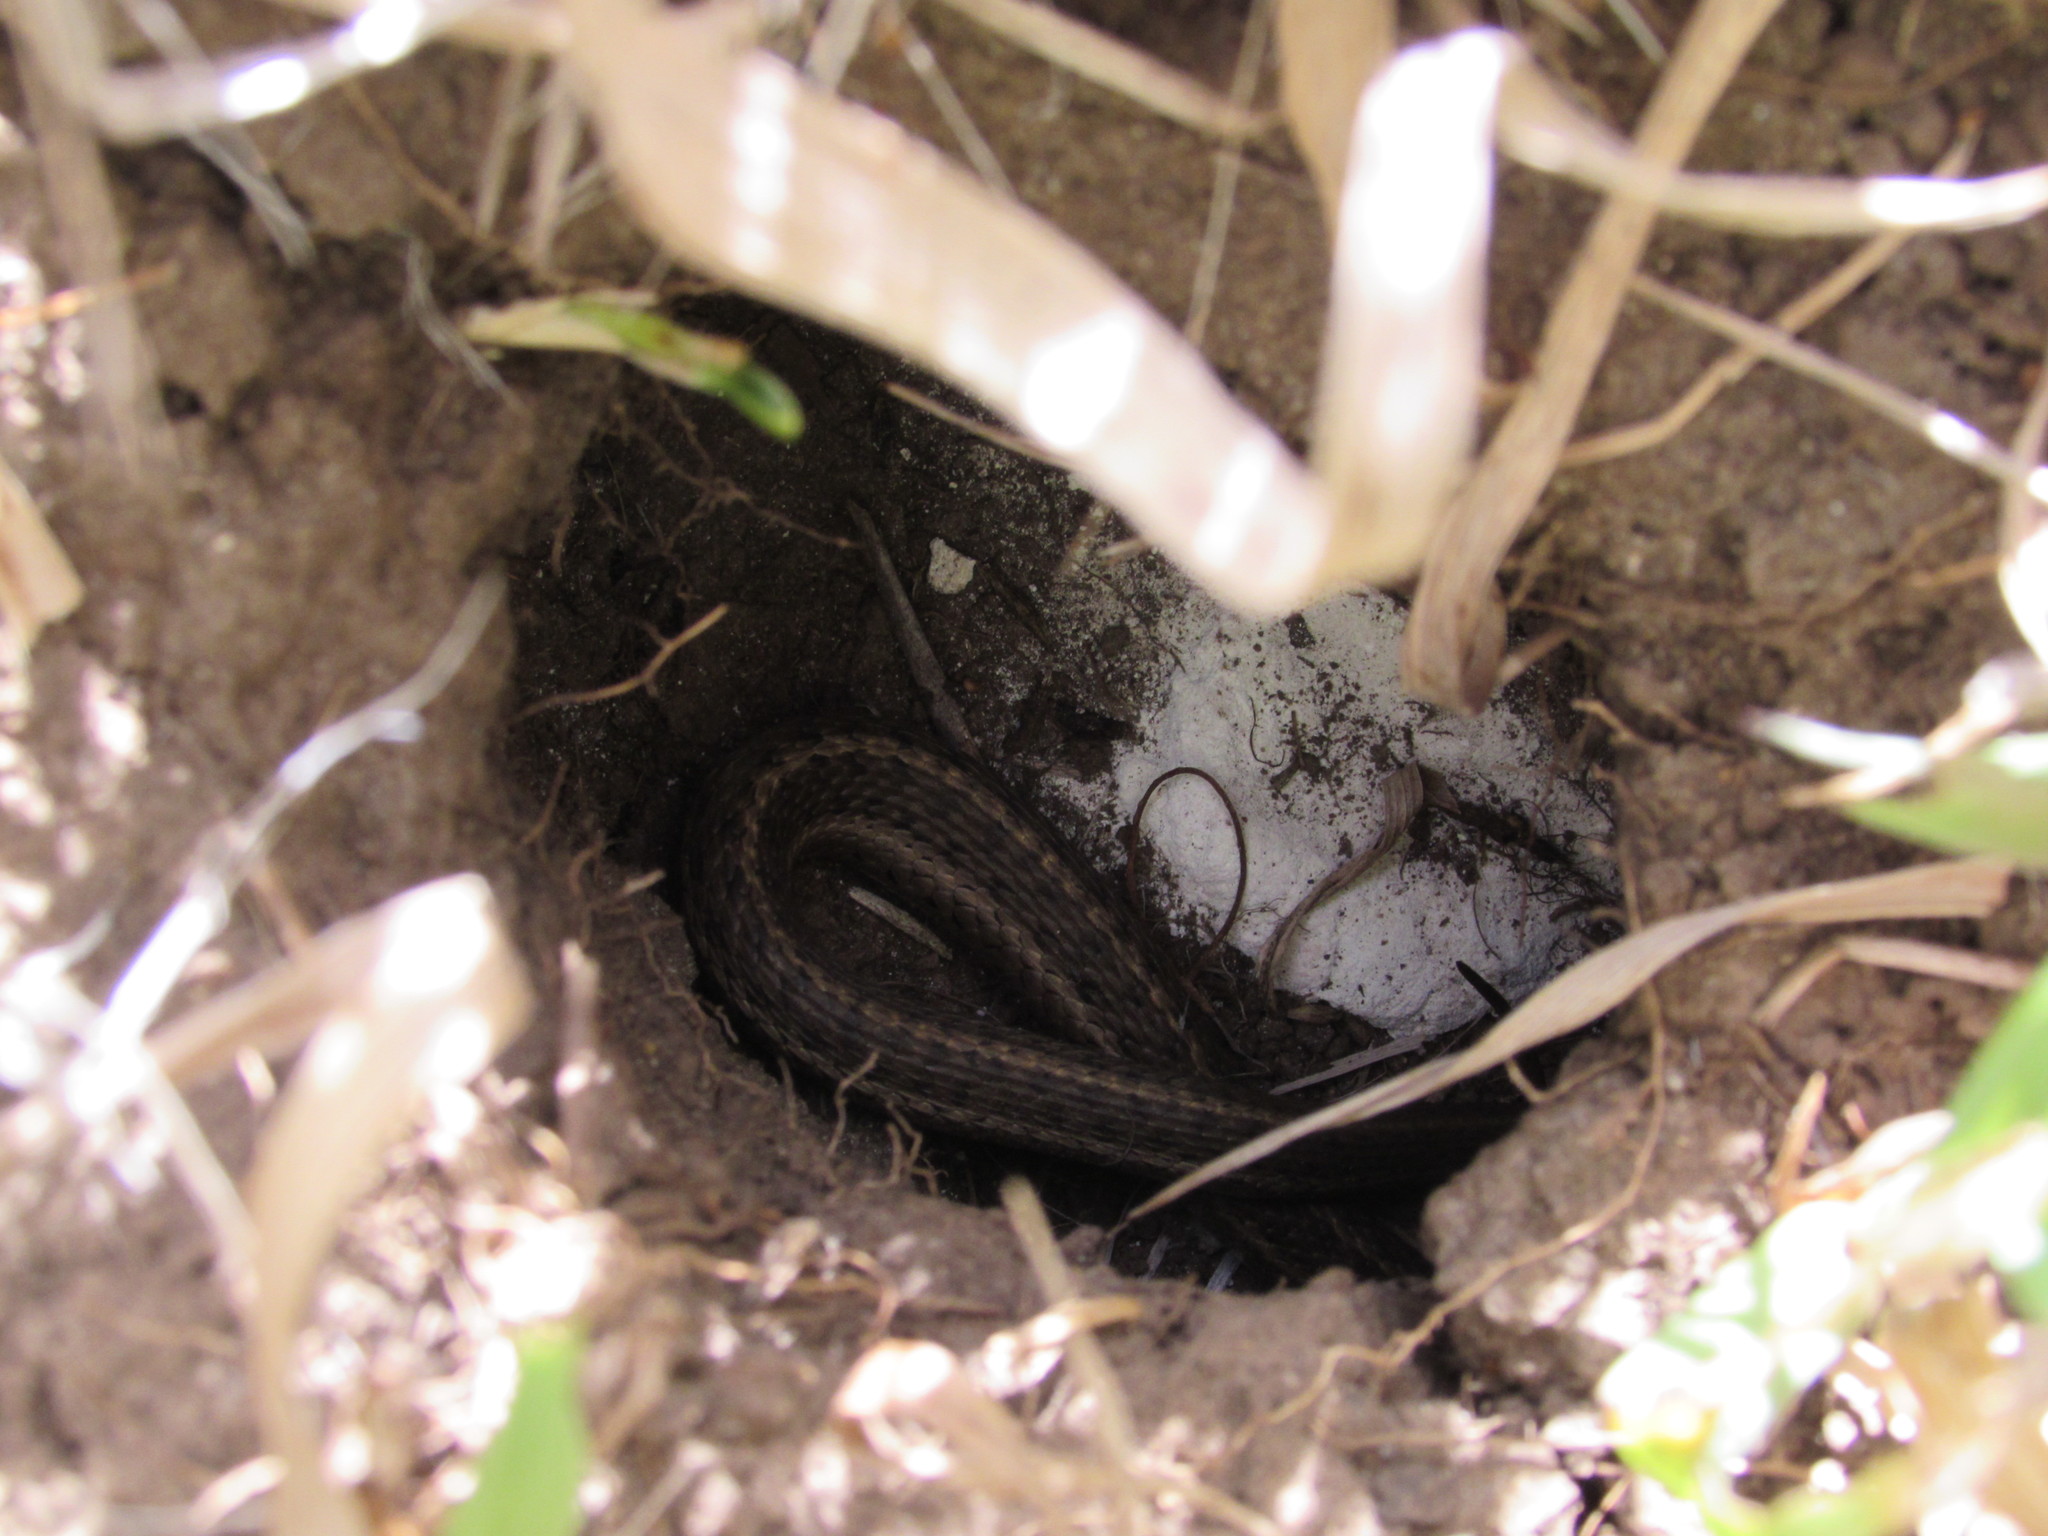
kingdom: Animalia
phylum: Chordata
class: Squamata
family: Colubridae
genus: Thamnophis
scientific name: Thamnophis elegans
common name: Western terrestrial garter snake
